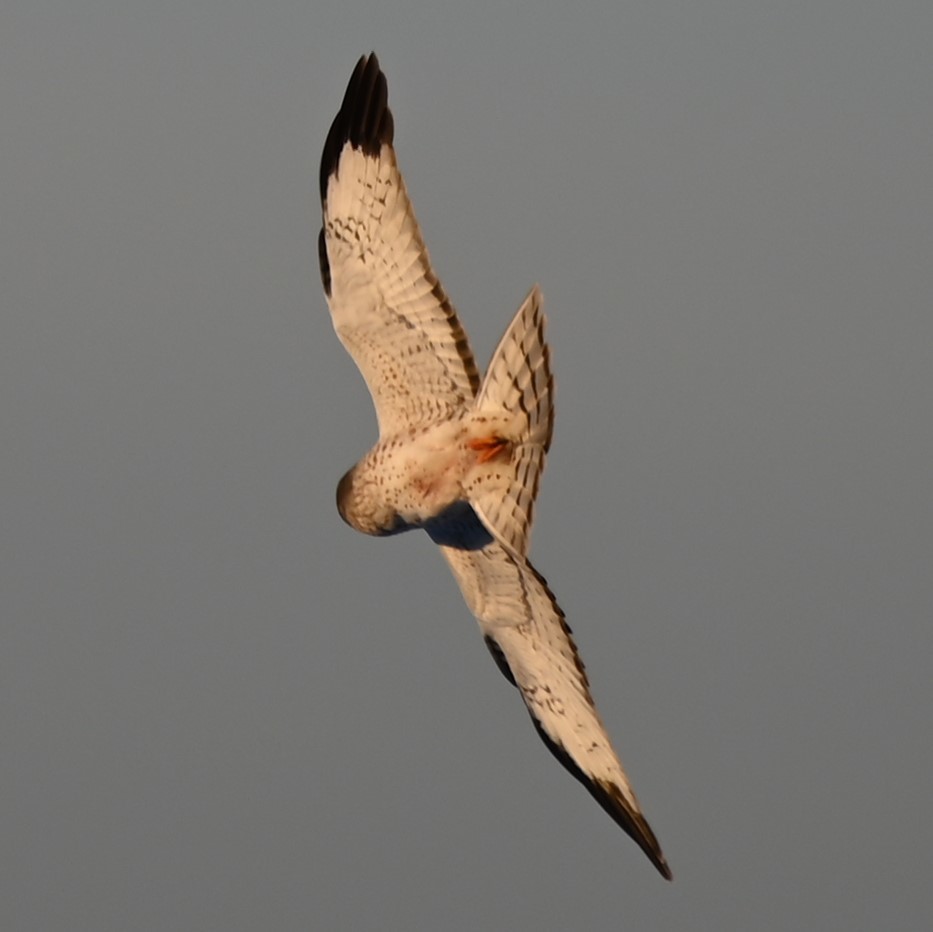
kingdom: Animalia
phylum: Chordata
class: Aves
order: Accipitriformes
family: Accipitridae
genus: Circus
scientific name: Circus cyaneus
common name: Hen harrier
